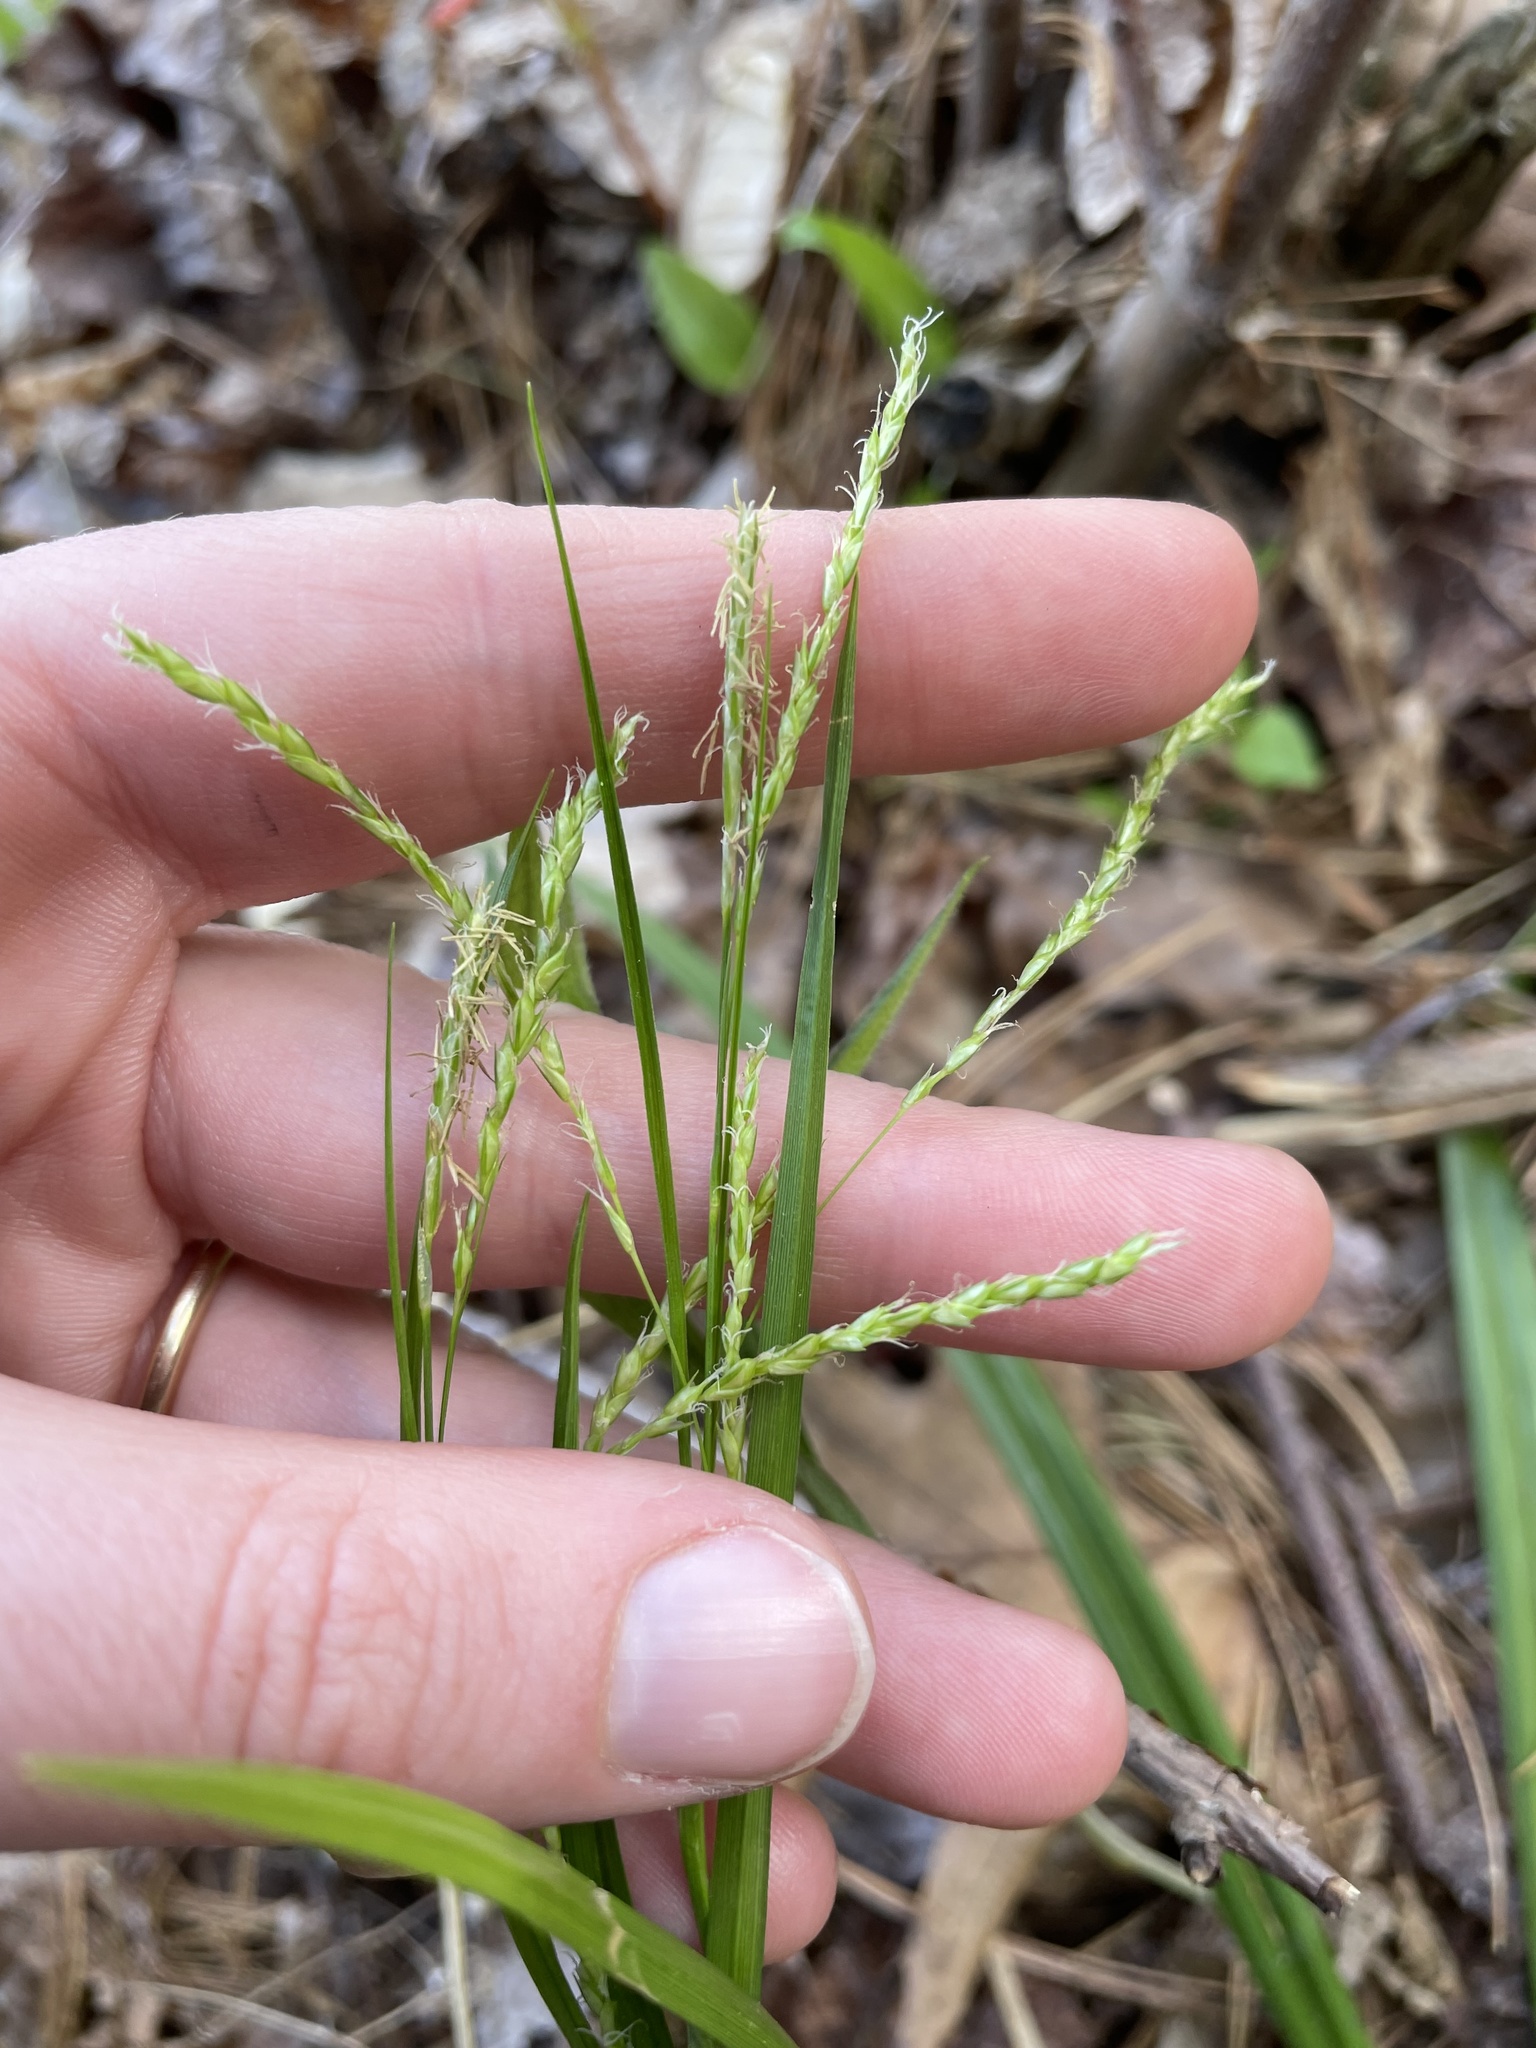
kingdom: Plantae
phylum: Tracheophyta
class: Liliopsida
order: Poales
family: Cyperaceae
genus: Carex
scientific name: Carex arctata
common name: Black sedge
